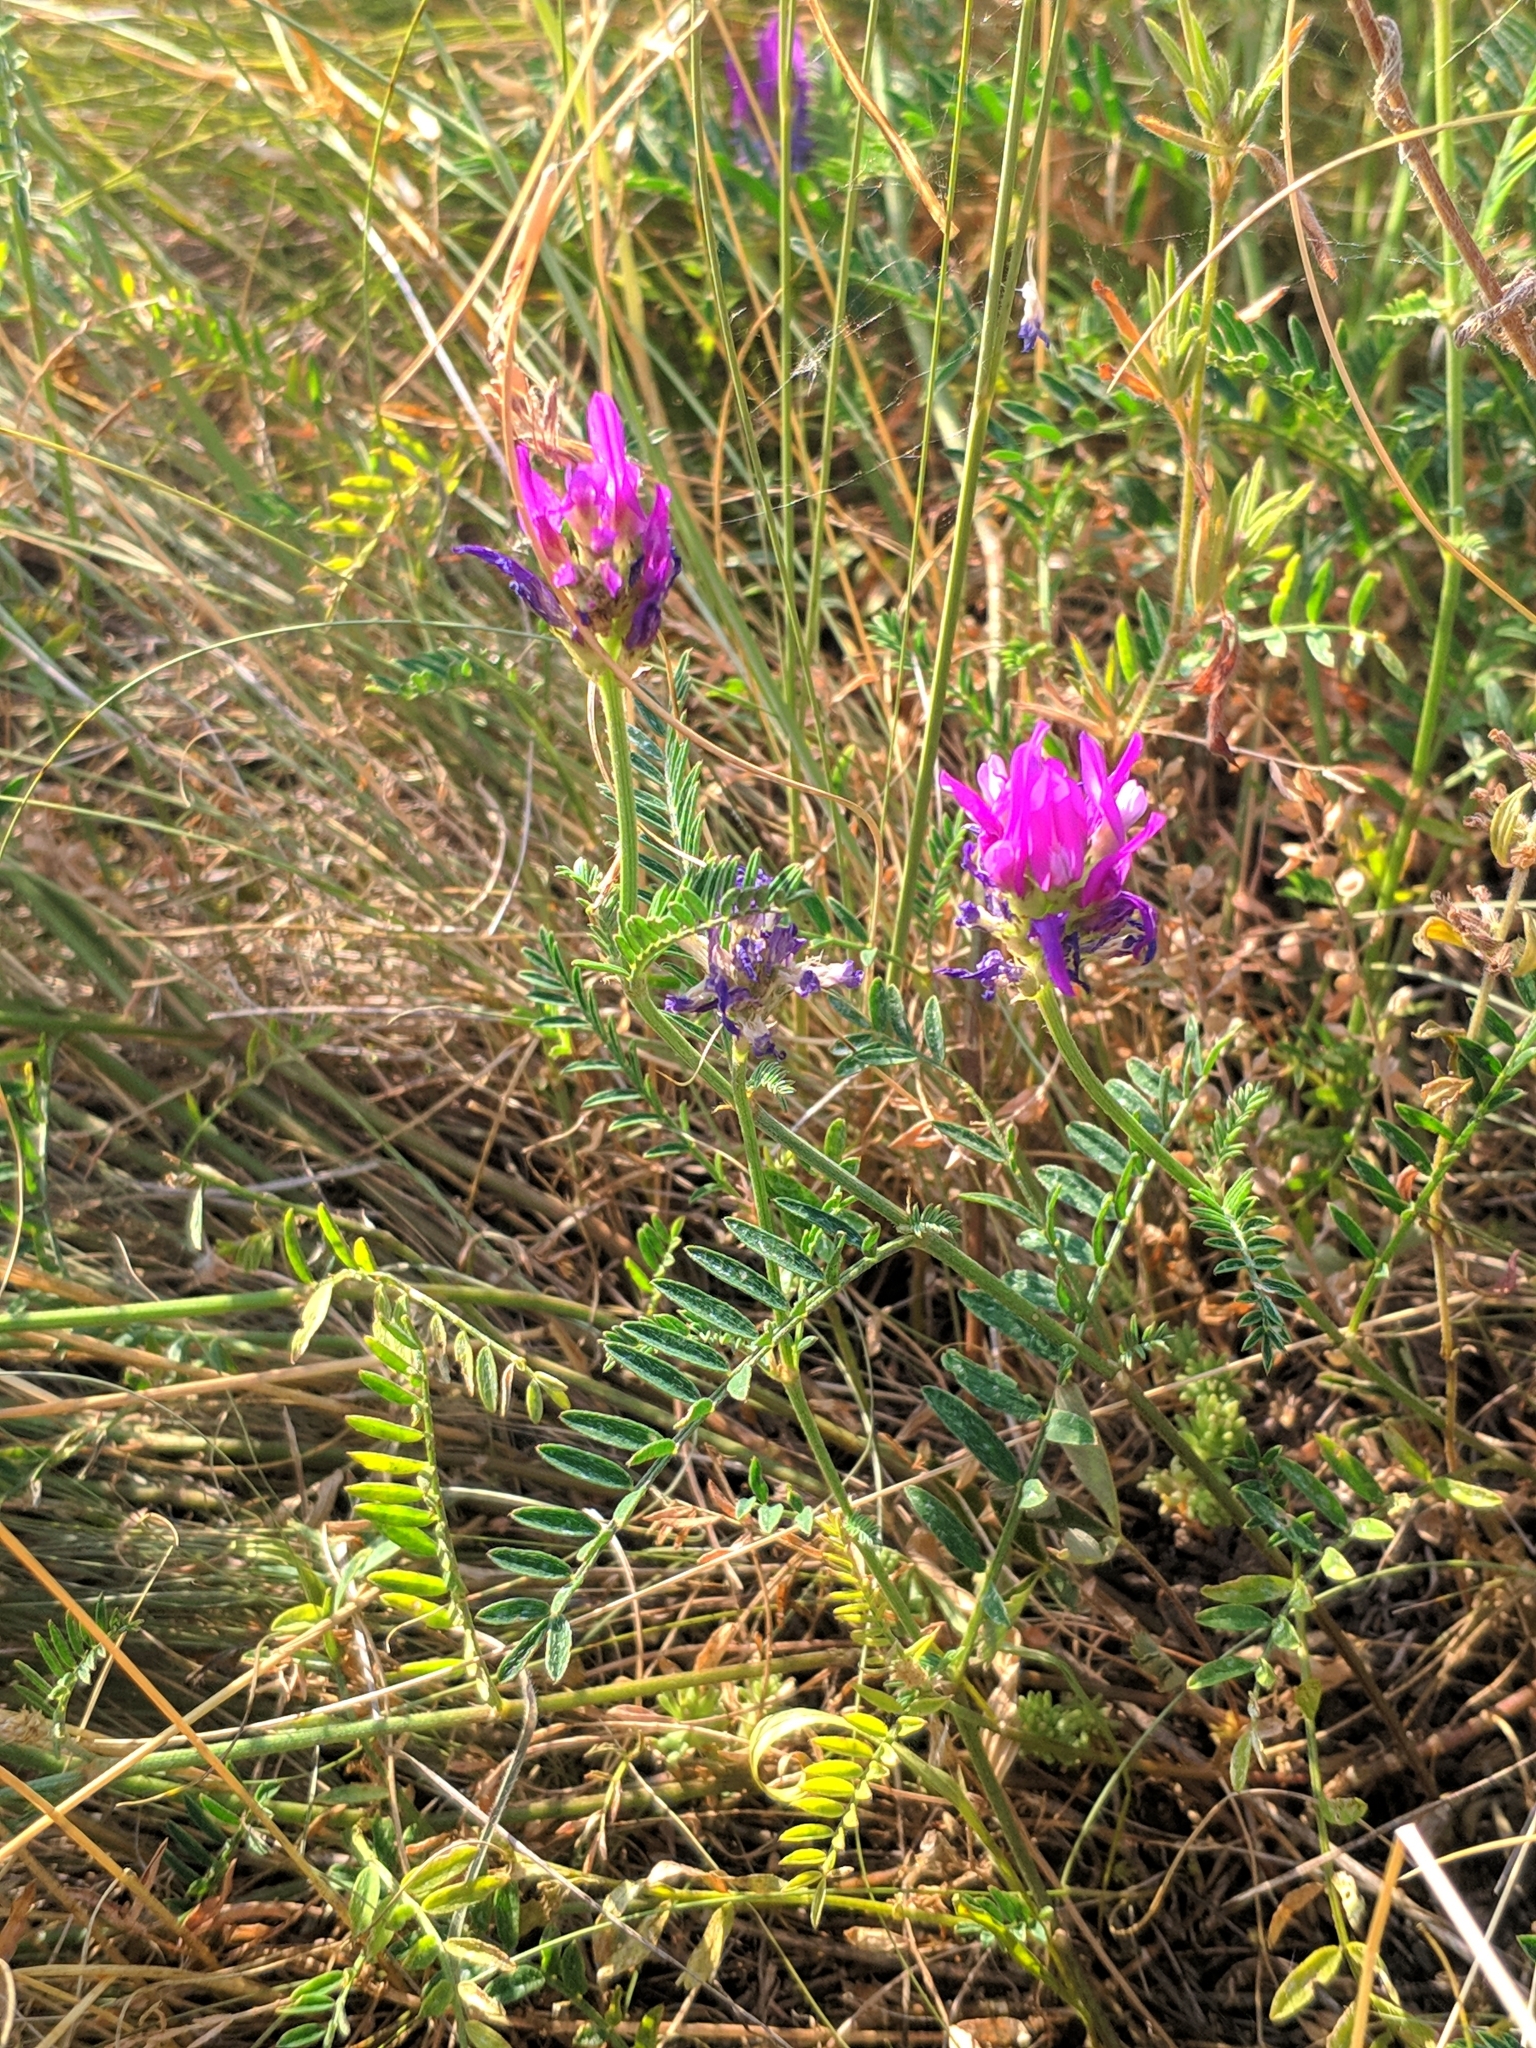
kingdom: Plantae
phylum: Tracheophyta
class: Magnoliopsida
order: Fabales
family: Fabaceae
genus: Astragalus
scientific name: Astragalus onobrychis
